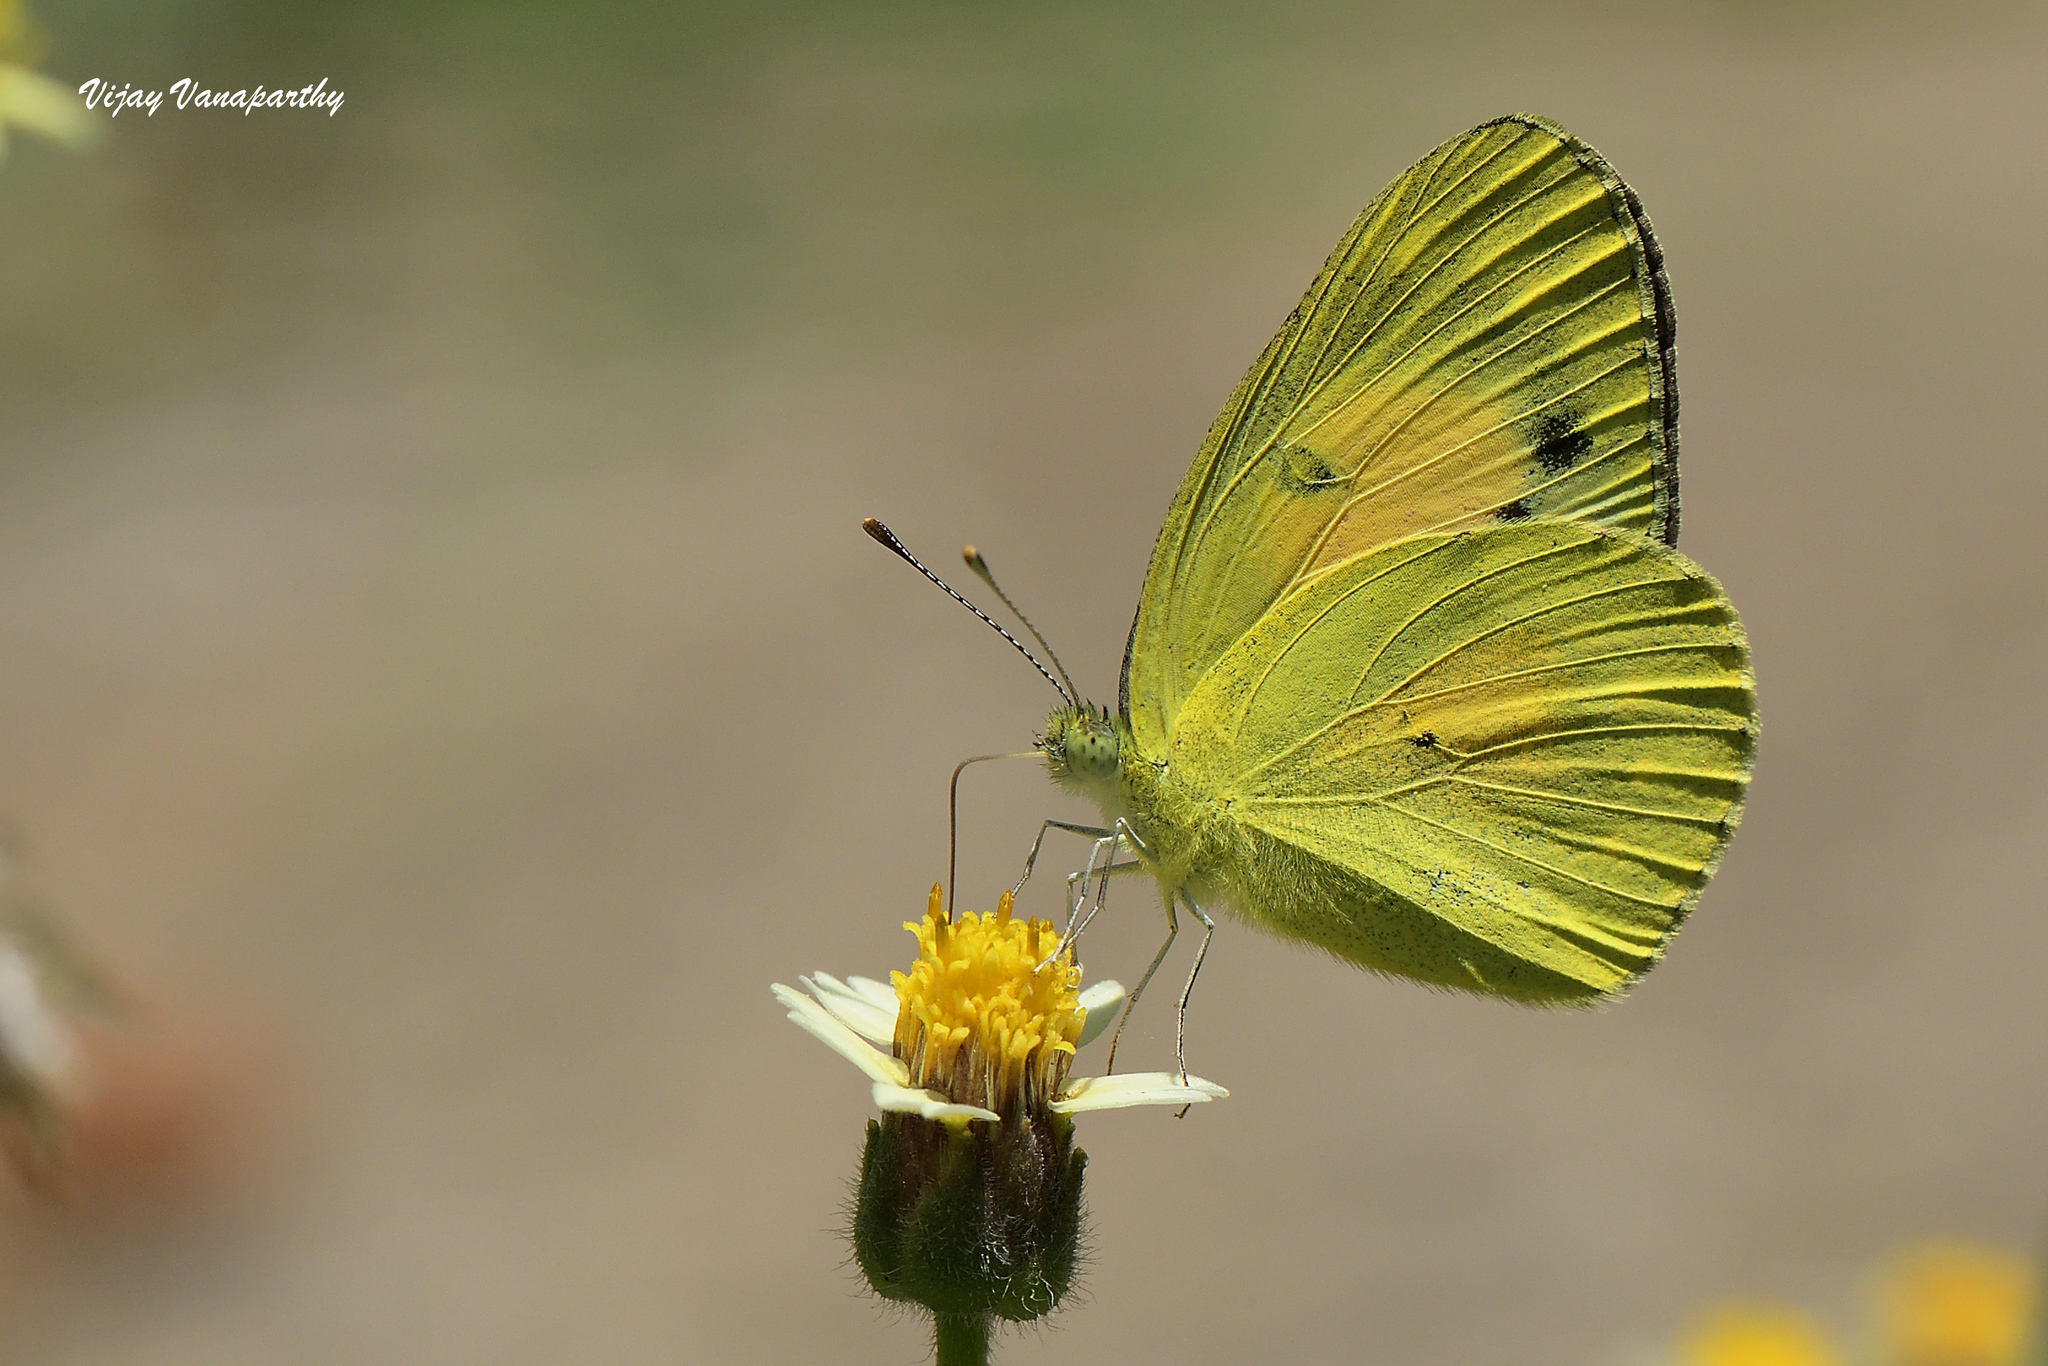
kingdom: Animalia
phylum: Arthropoda
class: Insecta
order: Lepidoptera
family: Pieridae
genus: Colotis
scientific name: Colotis amata
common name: Small salmon arab
